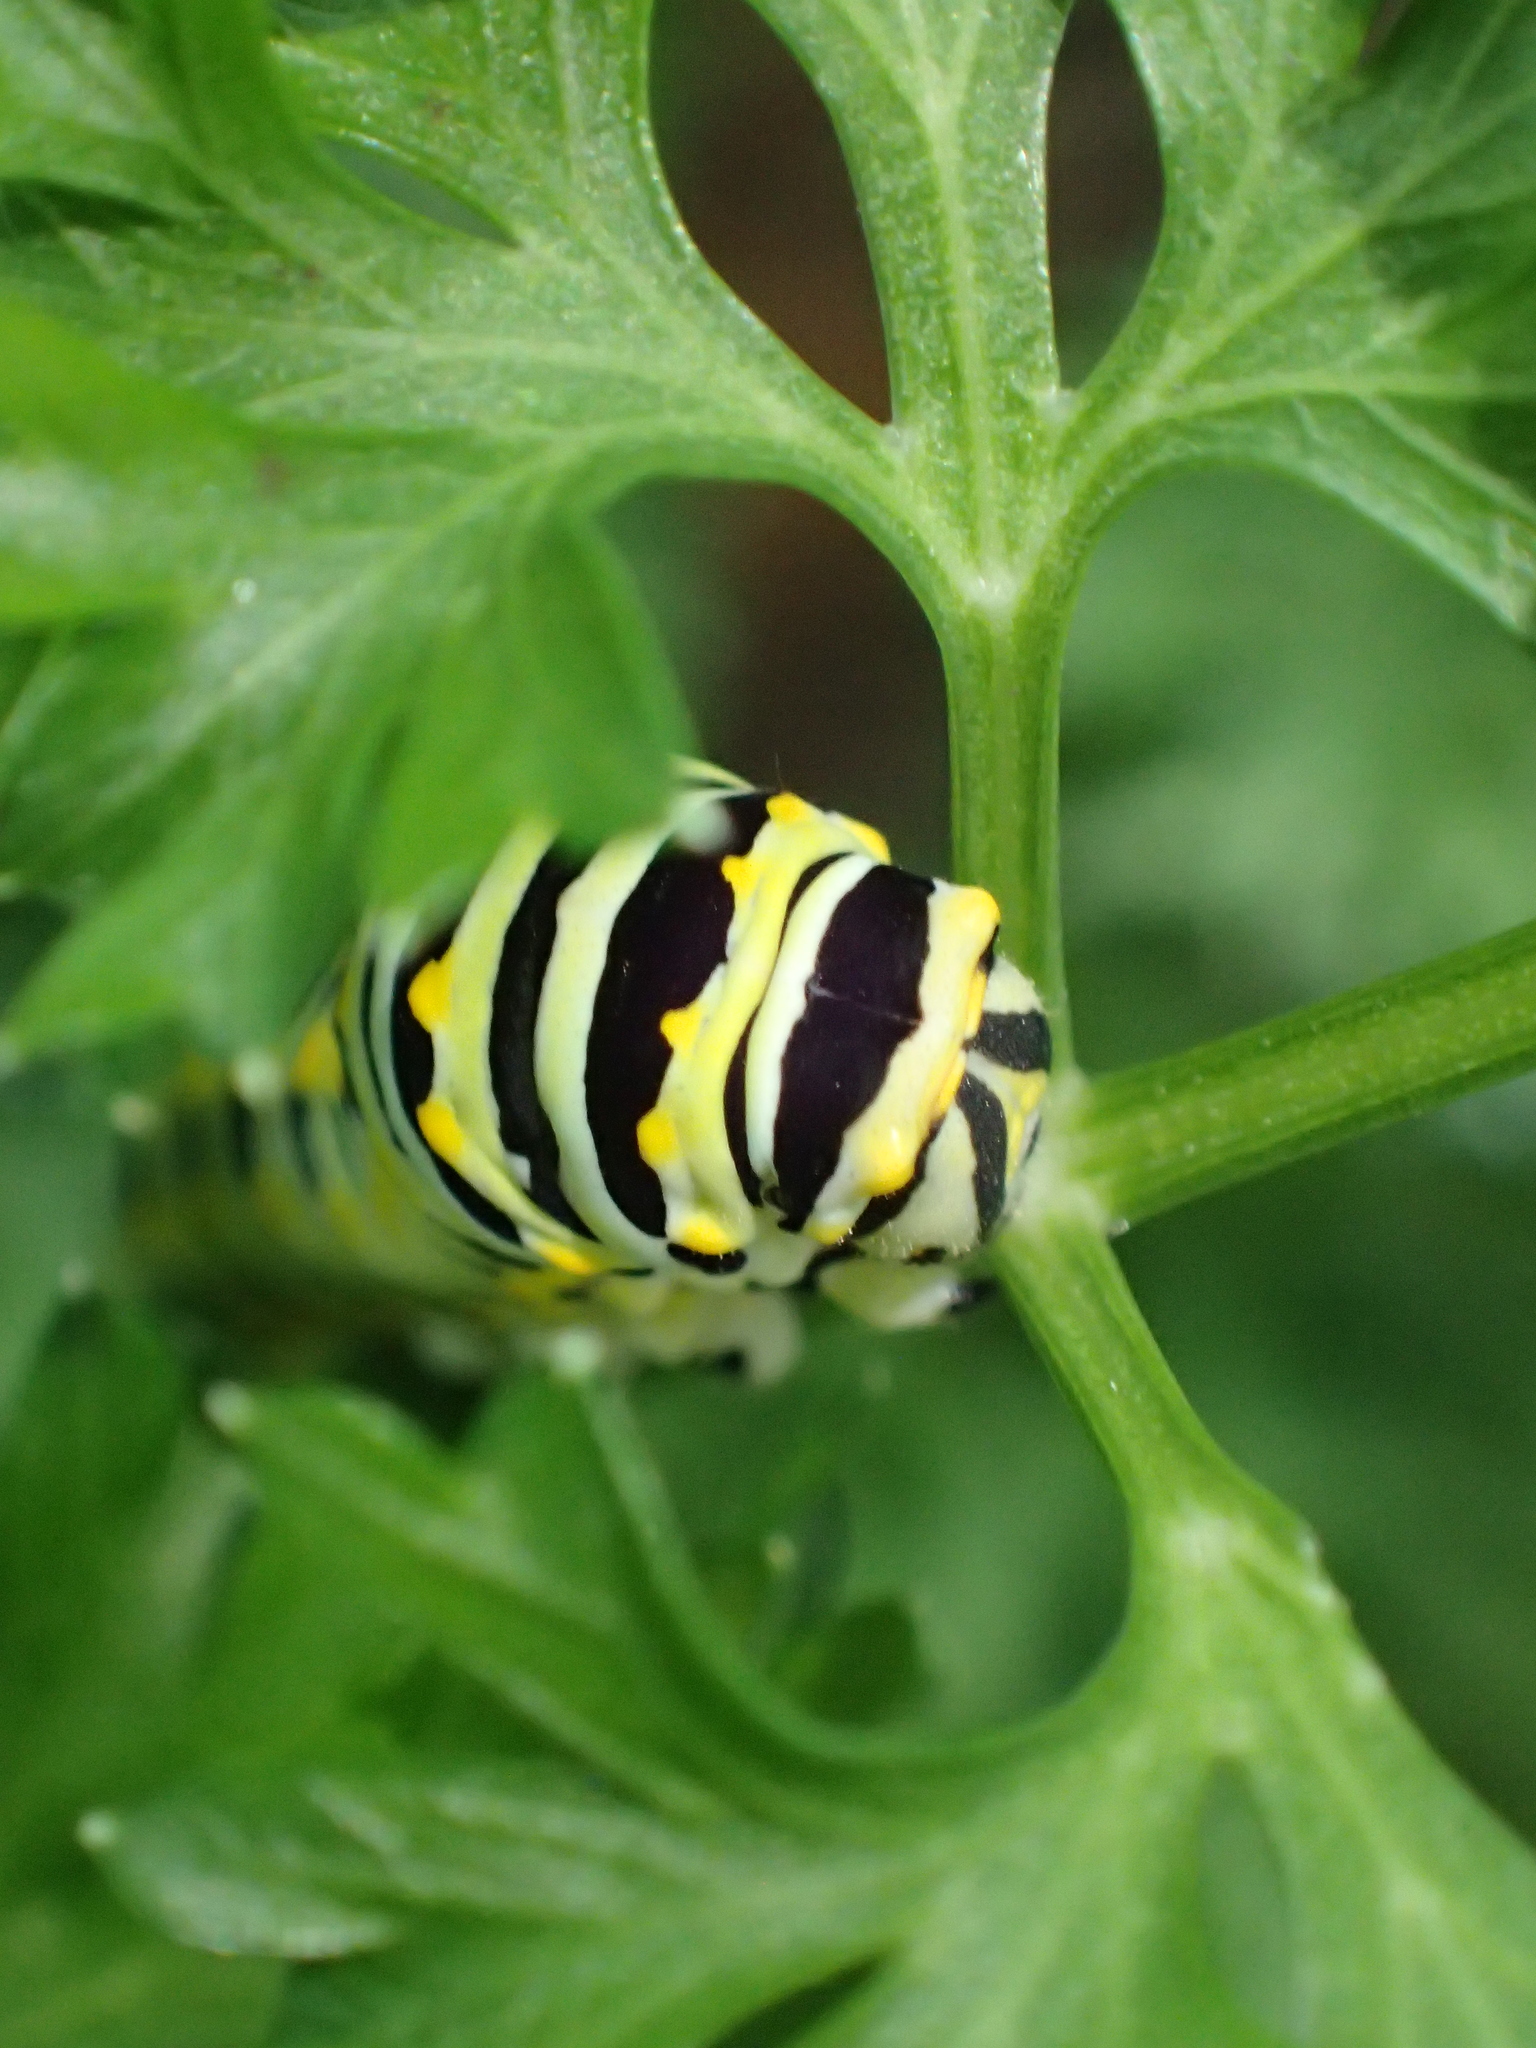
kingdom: Animalia
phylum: Arthropoda
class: Insecta
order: Lepidoptera
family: Papilionidae
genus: Papilio
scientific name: Papilio polyxenes
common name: Black swallowtail
